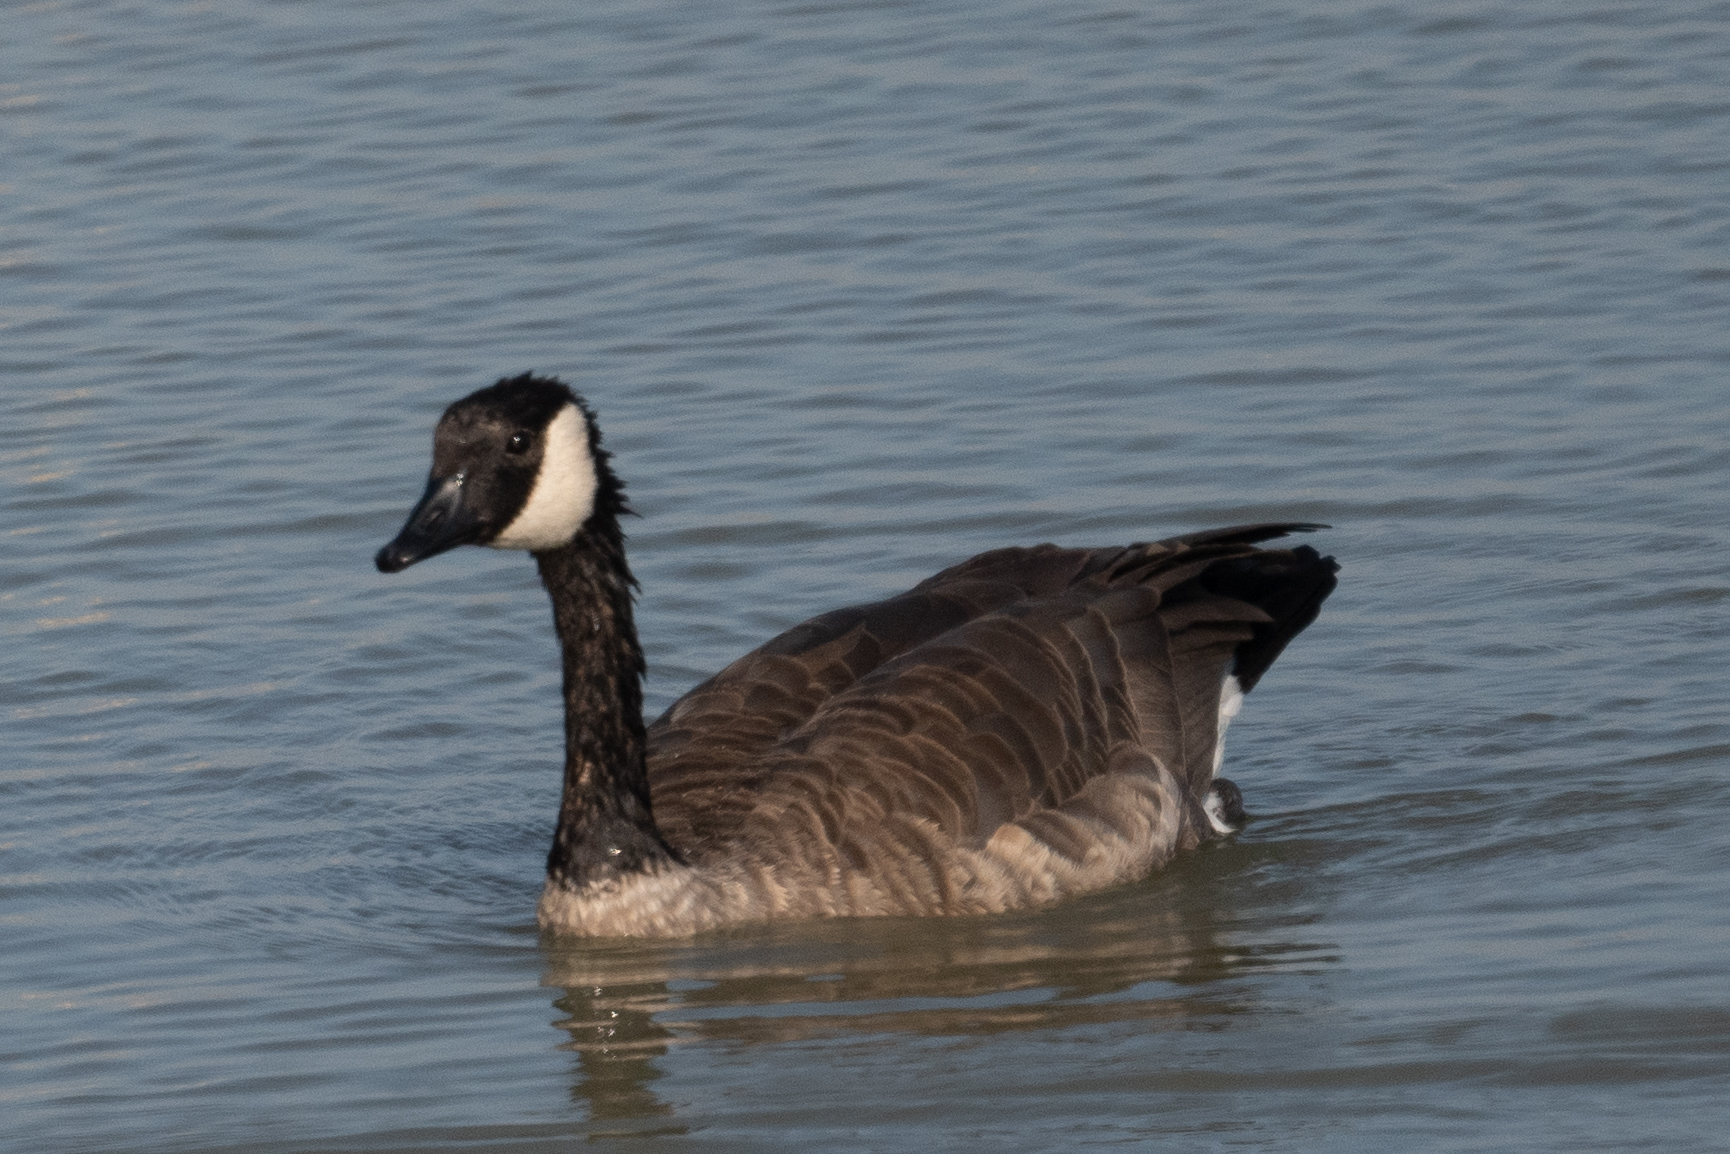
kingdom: Animalia
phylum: Chordata
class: Aves
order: Anseriformes
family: Anatidae
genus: Branta
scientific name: Branta canadensis
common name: Canada goose
